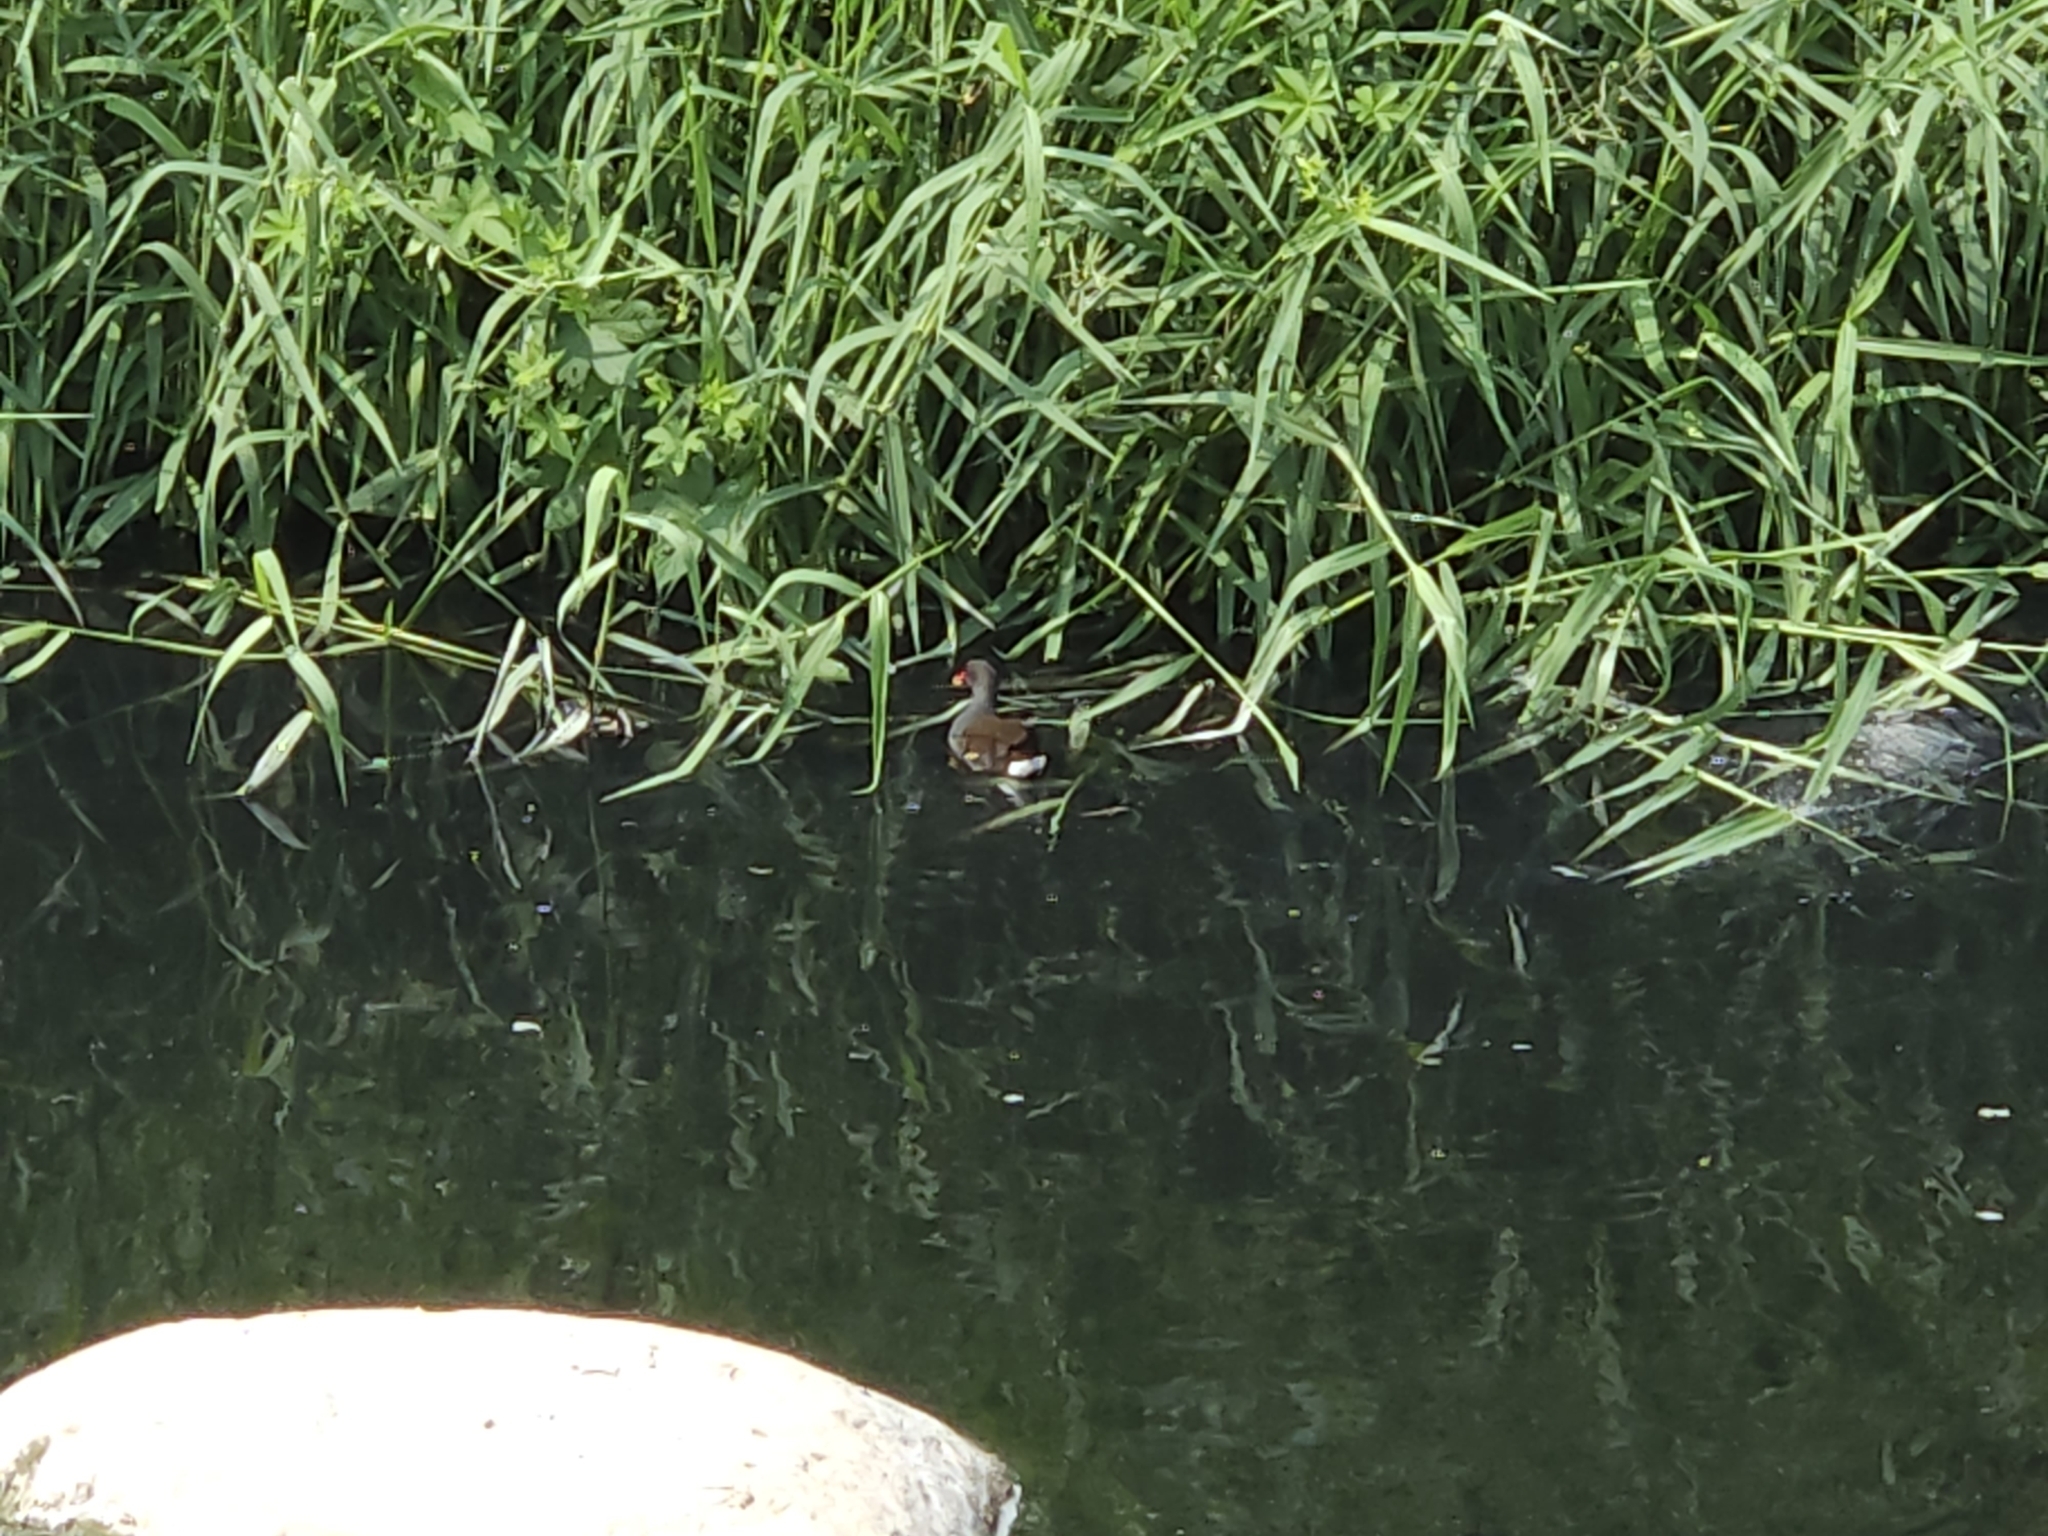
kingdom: Animalia
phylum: Chordata
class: Aves
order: Gruiformes
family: Rallidae
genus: Gallinula
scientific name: Gallinula chloropus
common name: Common moorhen
